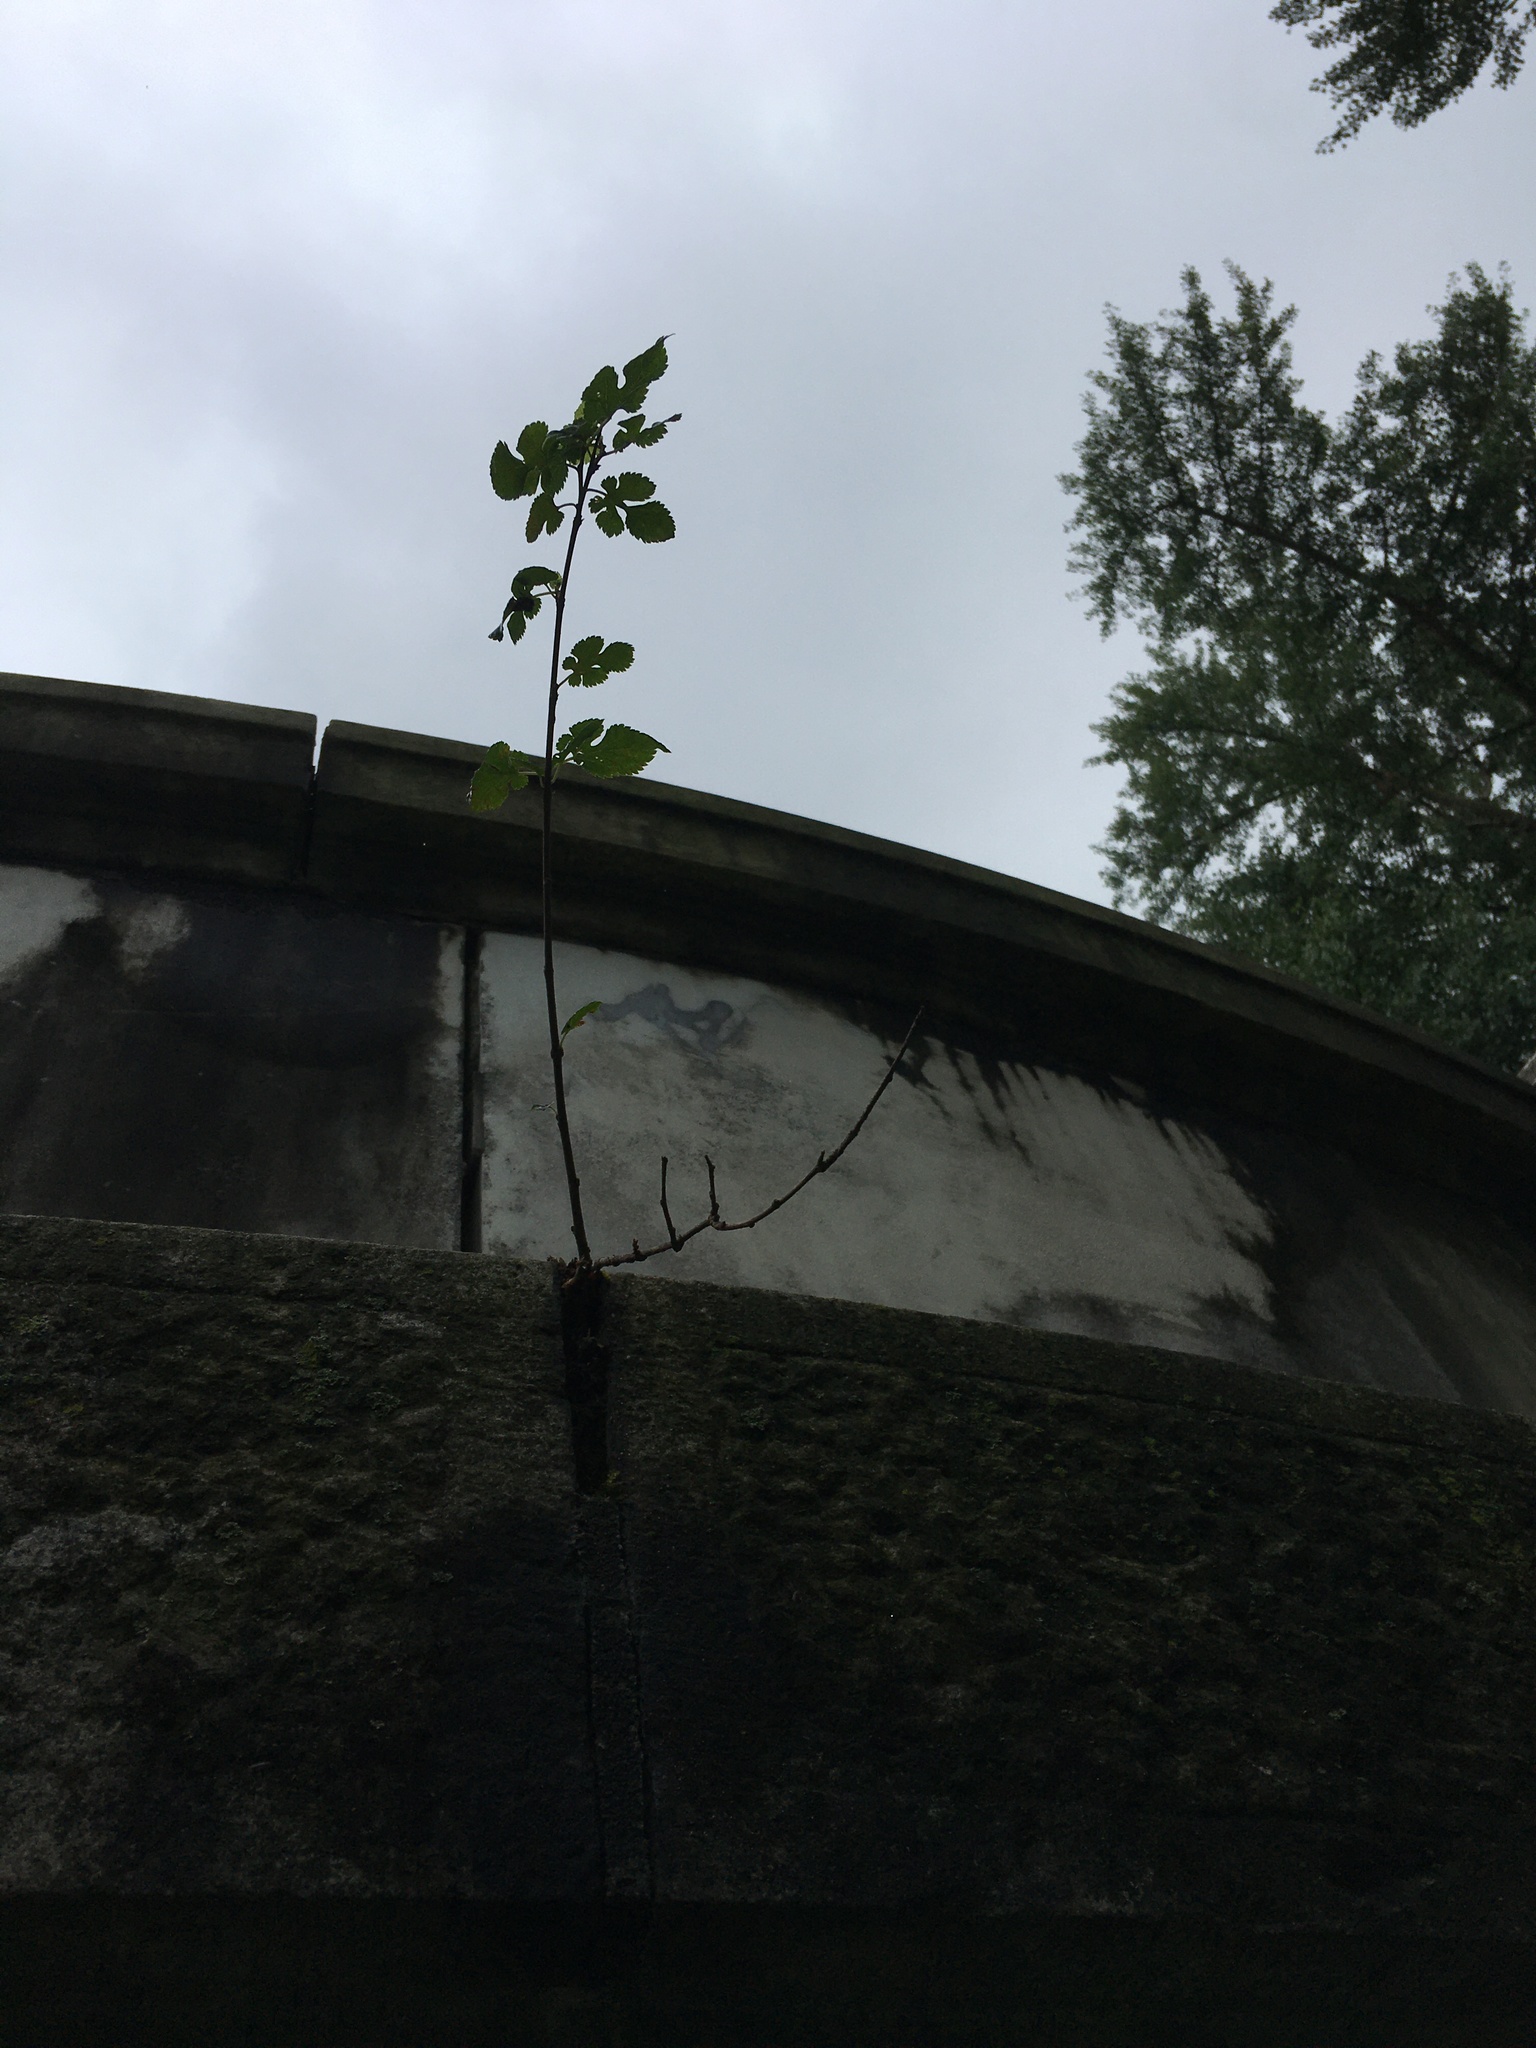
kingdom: Plantae
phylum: Tracheophyta
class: Magnoliopsida
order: Rosales
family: Moraceae
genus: Morus
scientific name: Morus alba
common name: White mulberry
